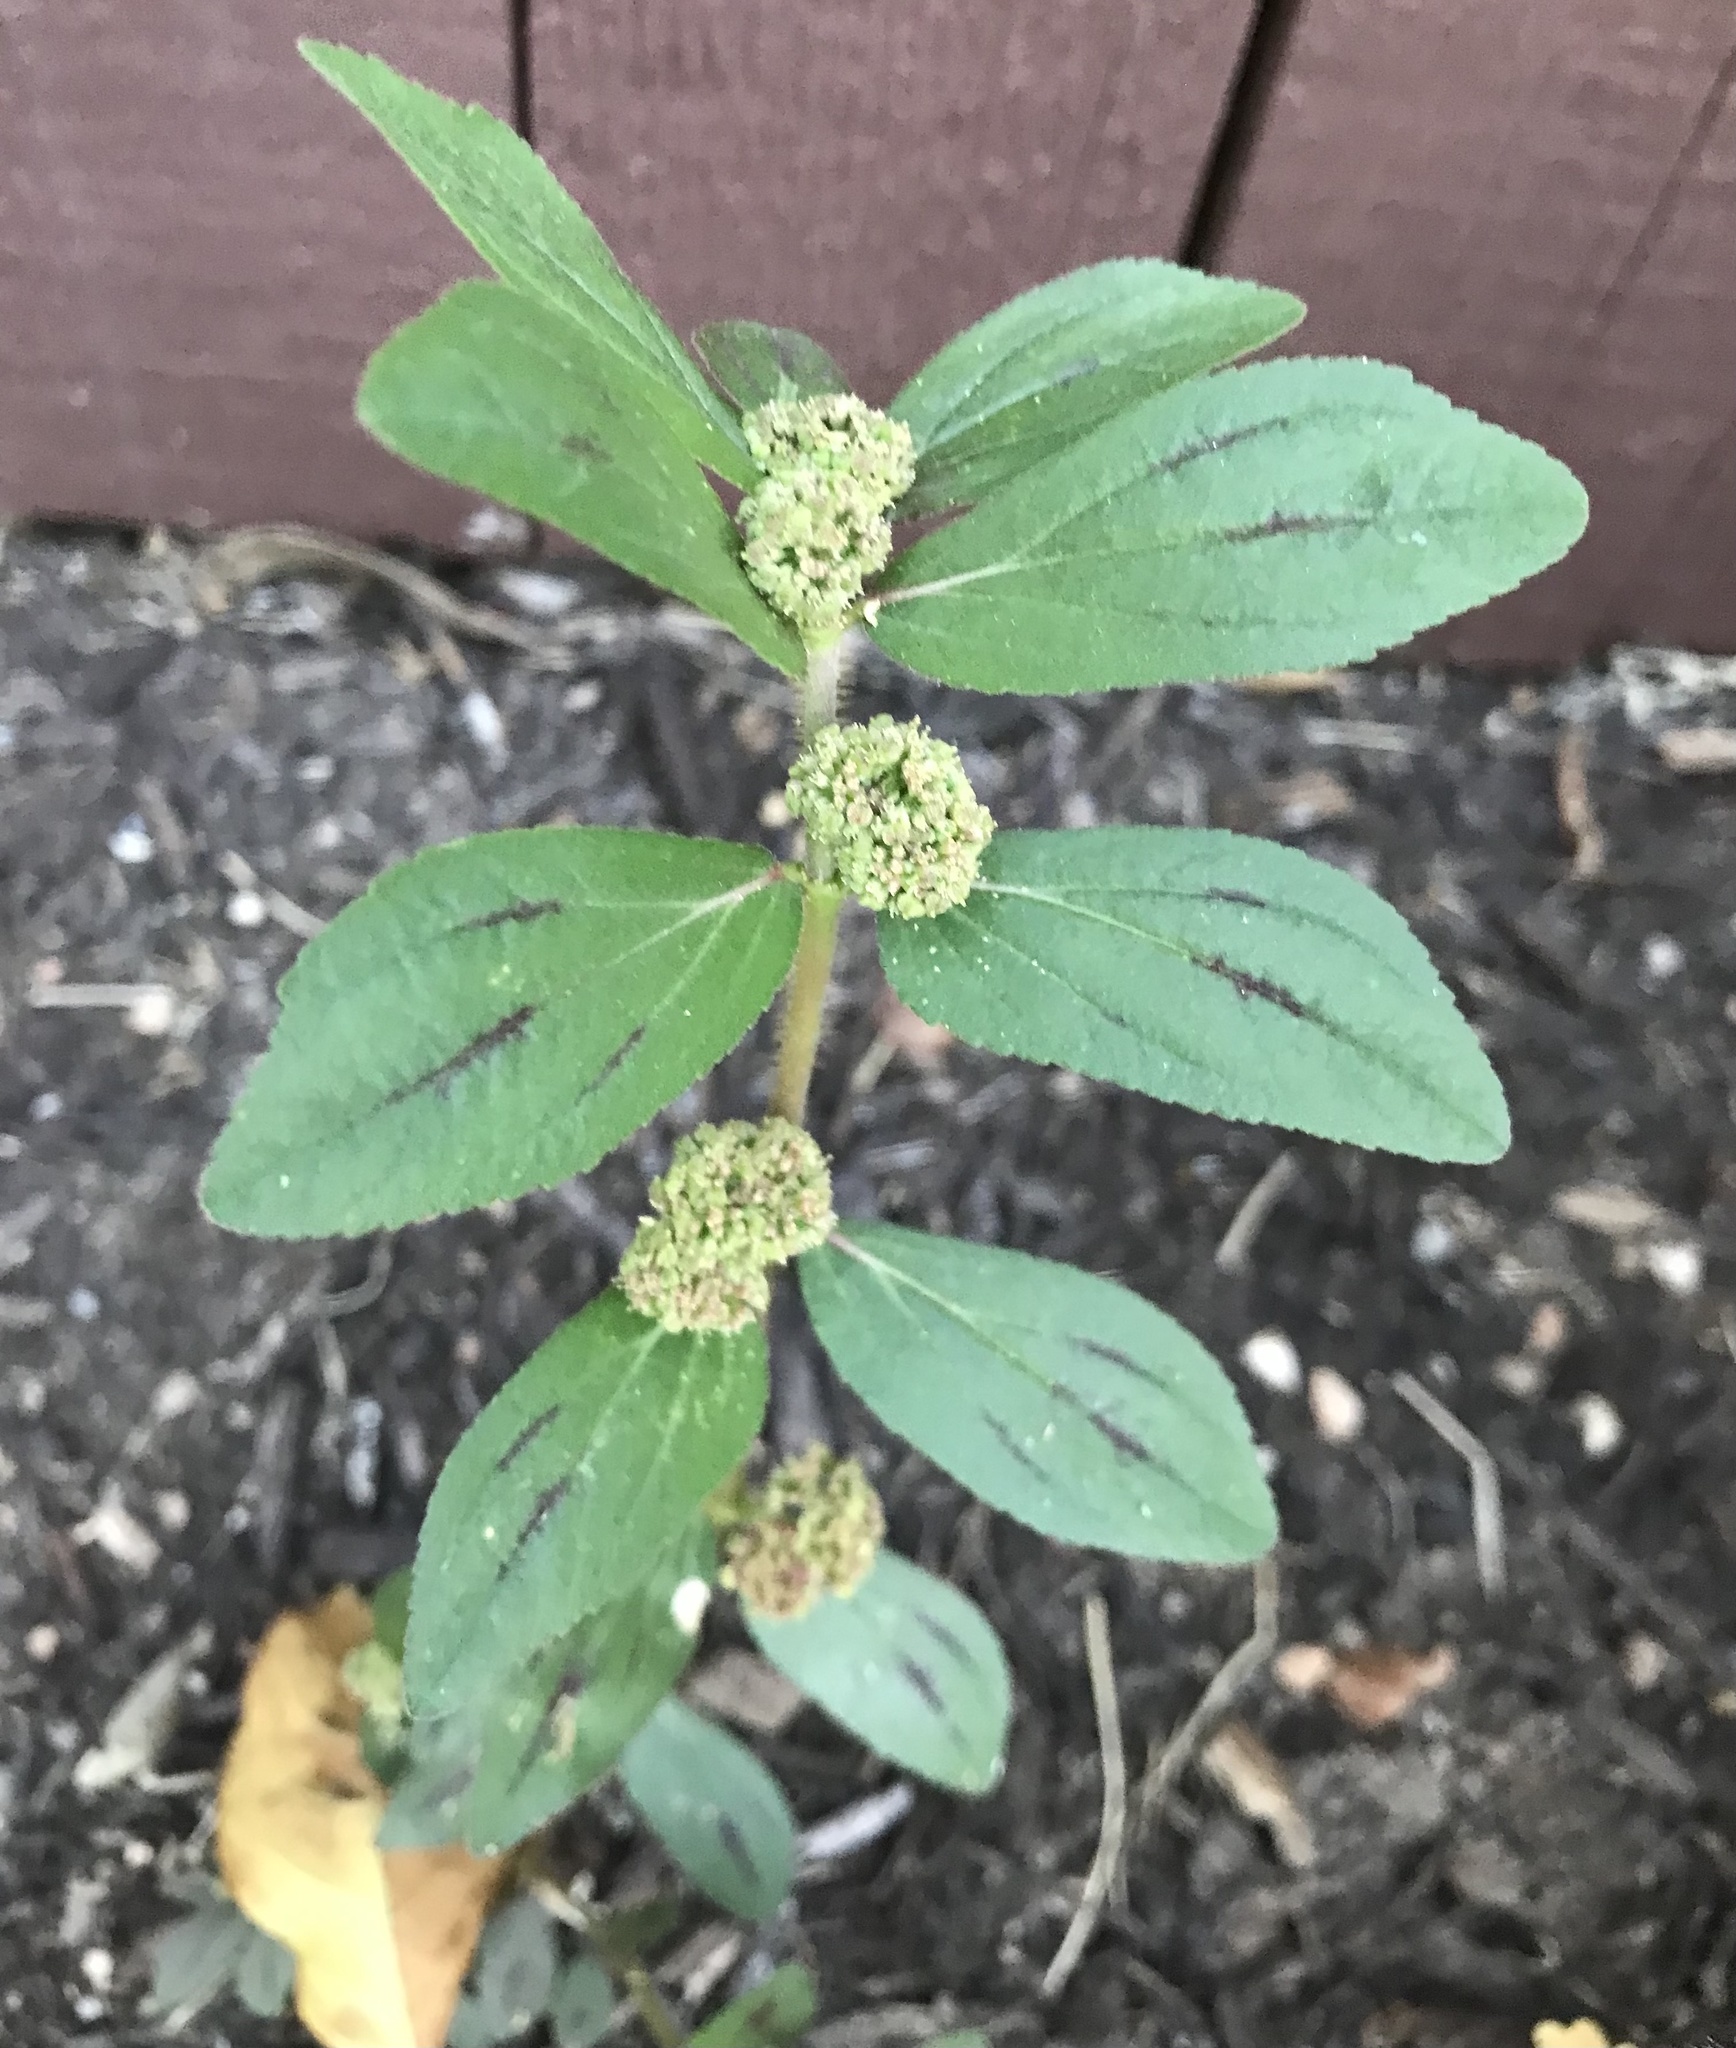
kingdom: Plantae
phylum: Tracheophyta
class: Magnoliopsida
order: Malpighiales
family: Euphorbiaceae
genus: Euphorbia
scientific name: Euphorbia hirta
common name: Pillpod sandmat
